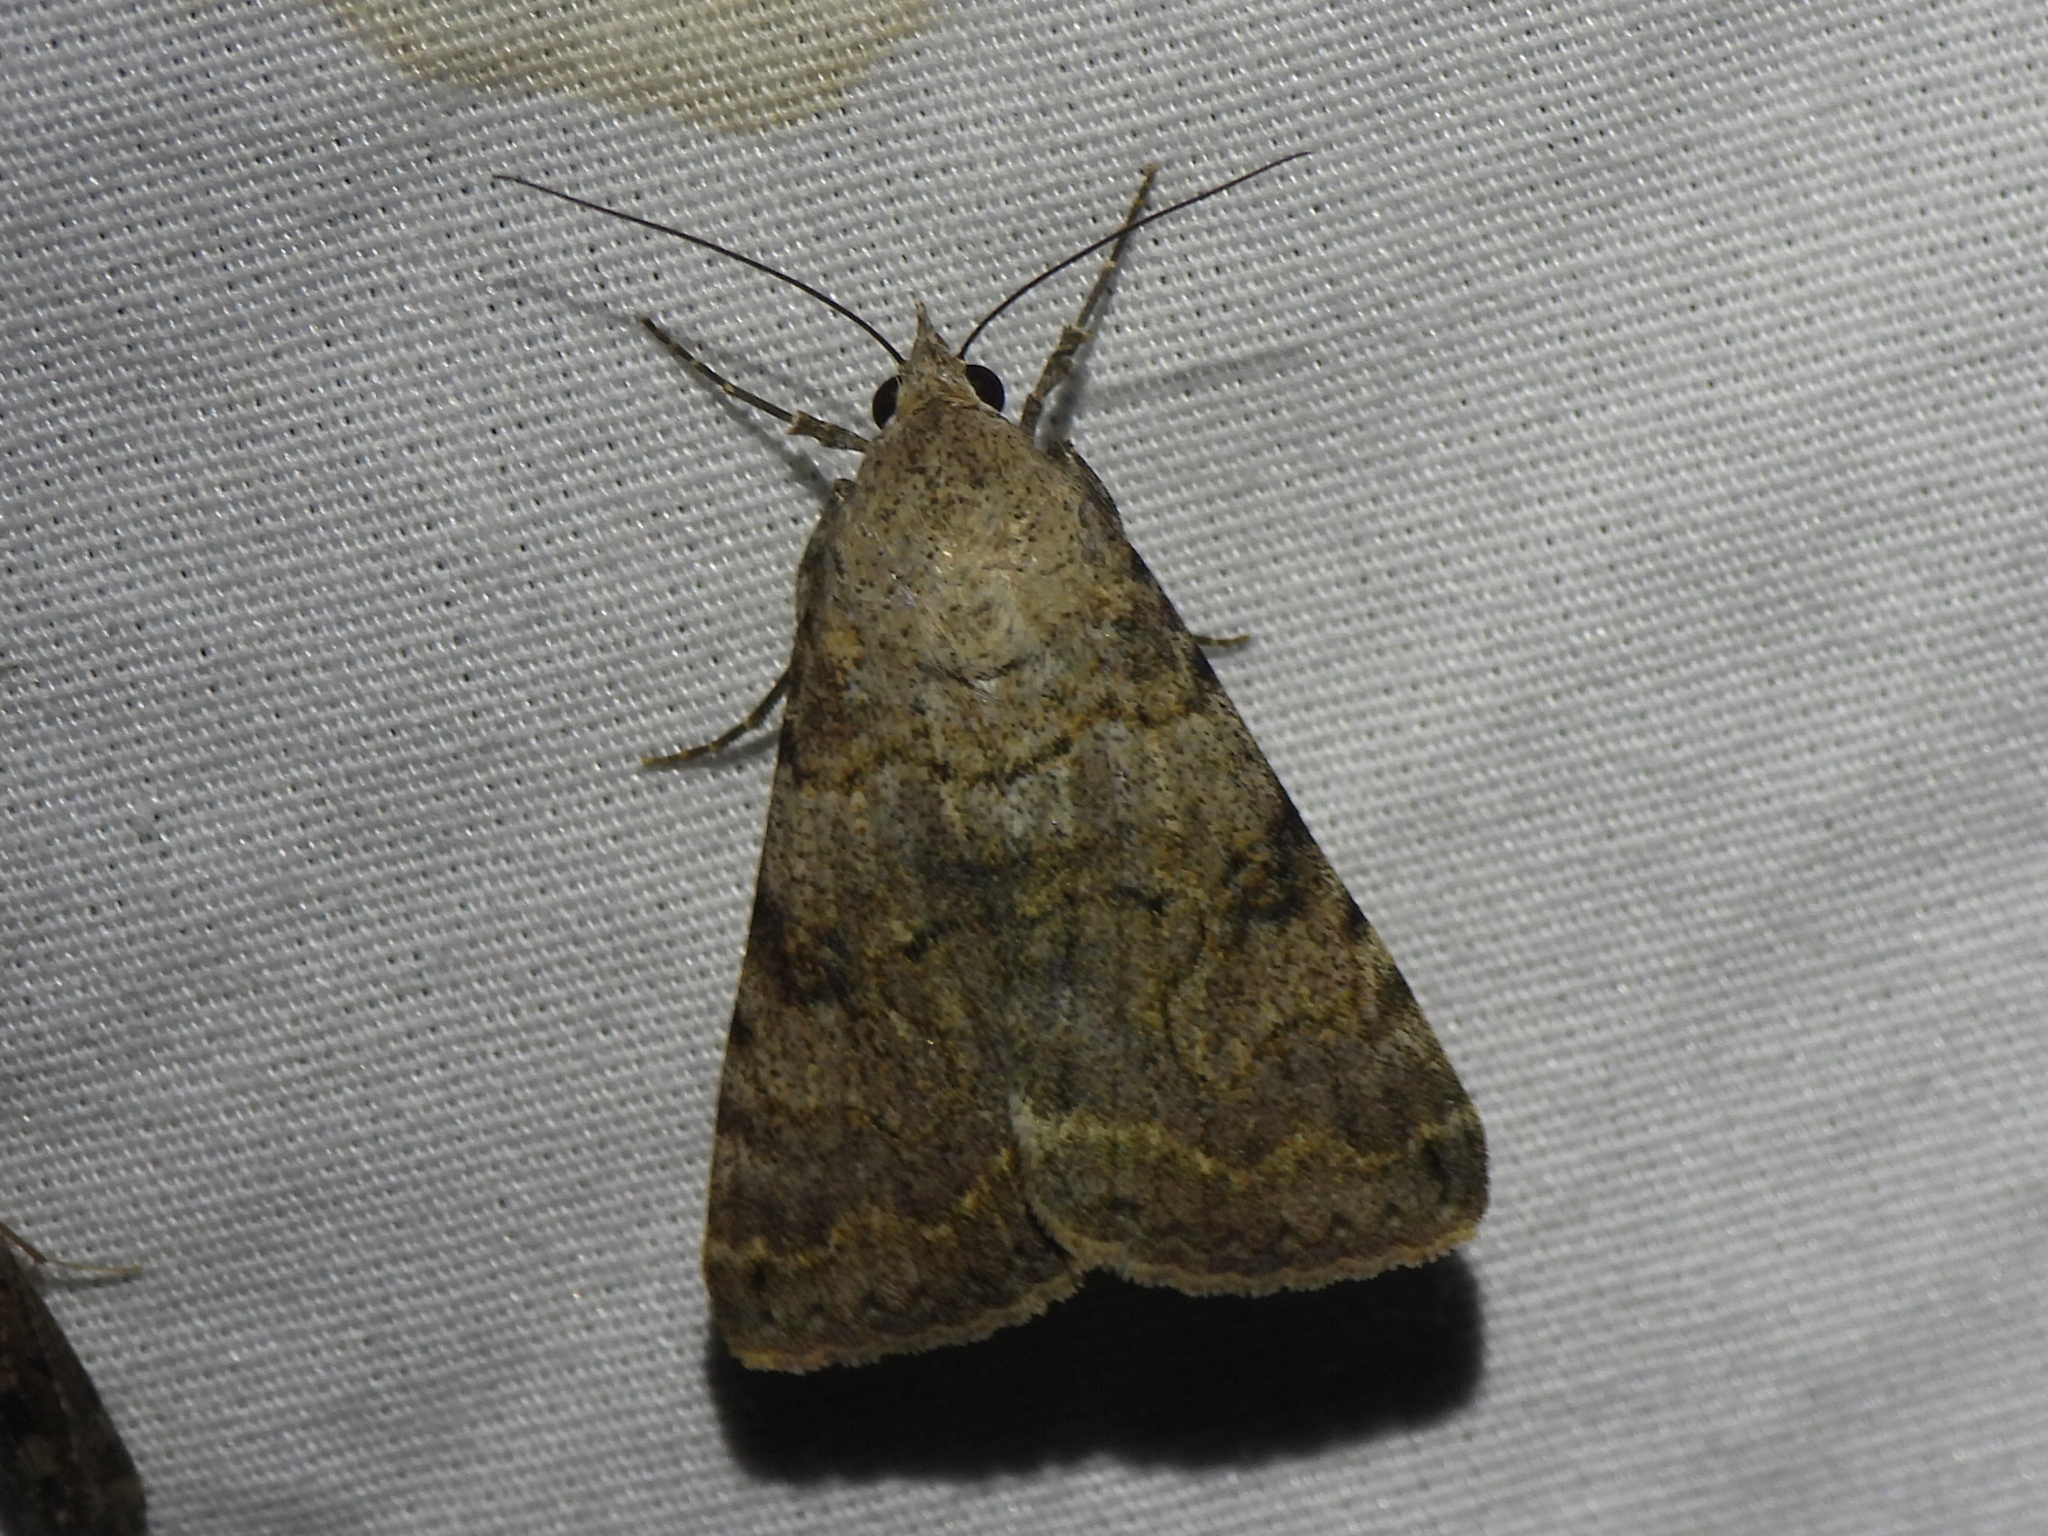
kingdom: Animalia
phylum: Arthropoda
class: Insecta
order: Lepidoptera
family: Erebidae
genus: Bulia
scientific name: Bulia deducta
